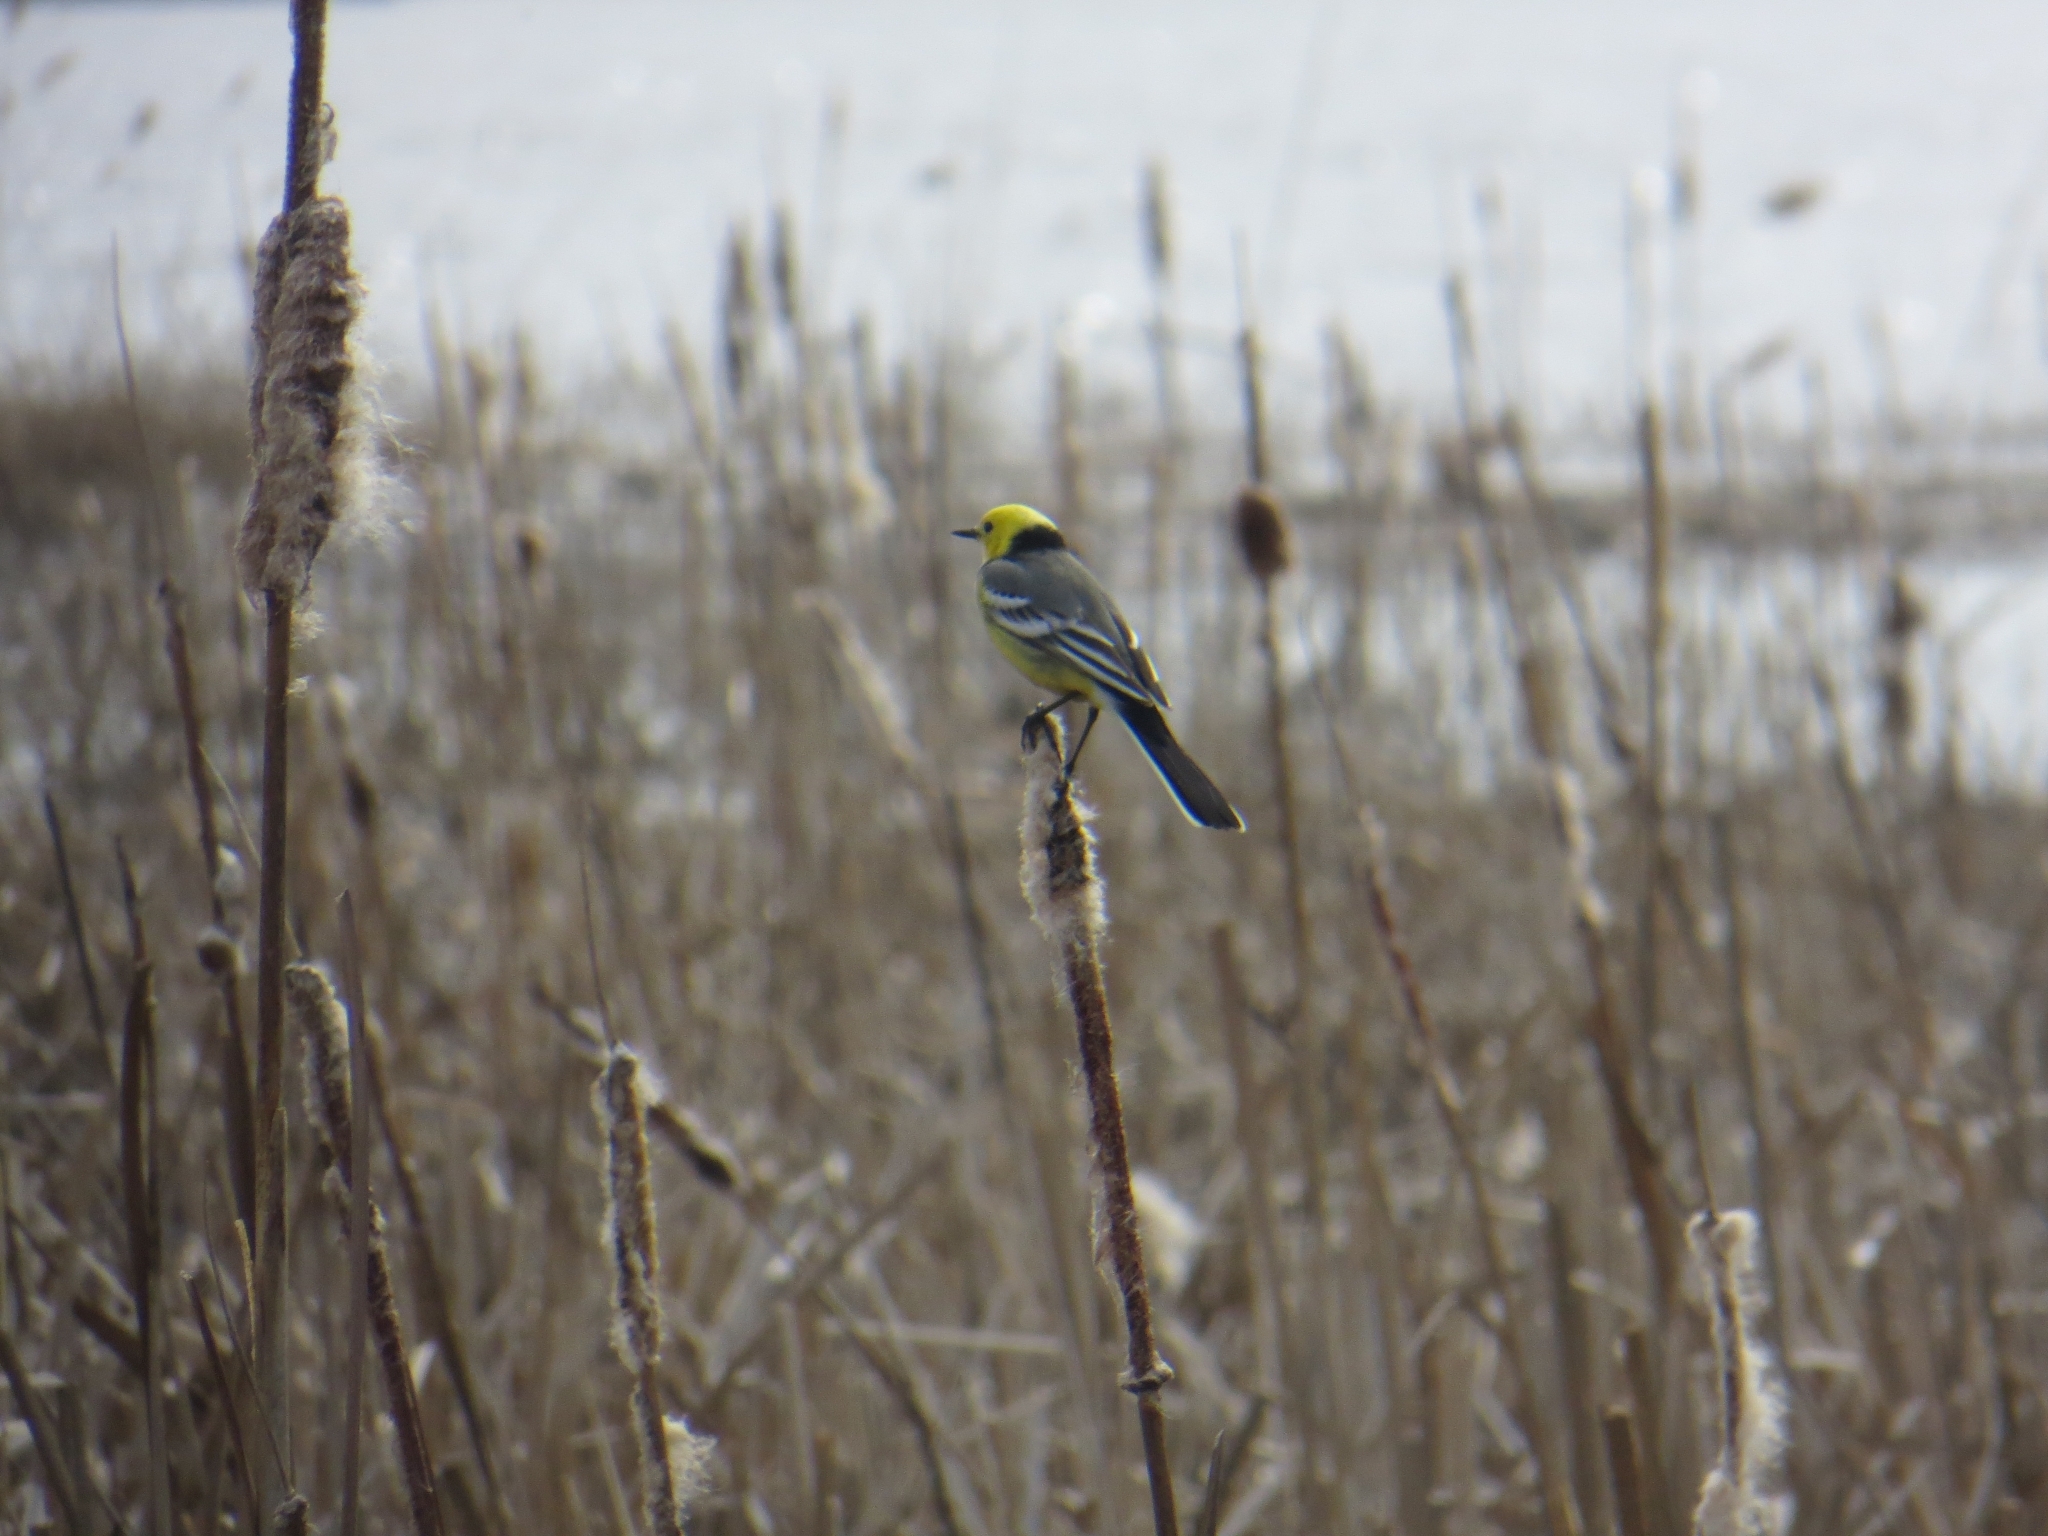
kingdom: Animalia
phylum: Chordata
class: Aves
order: Passeriformes
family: Motacillidae
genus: Motacilla
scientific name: Motacilla citreola
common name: Citrine wagtail
